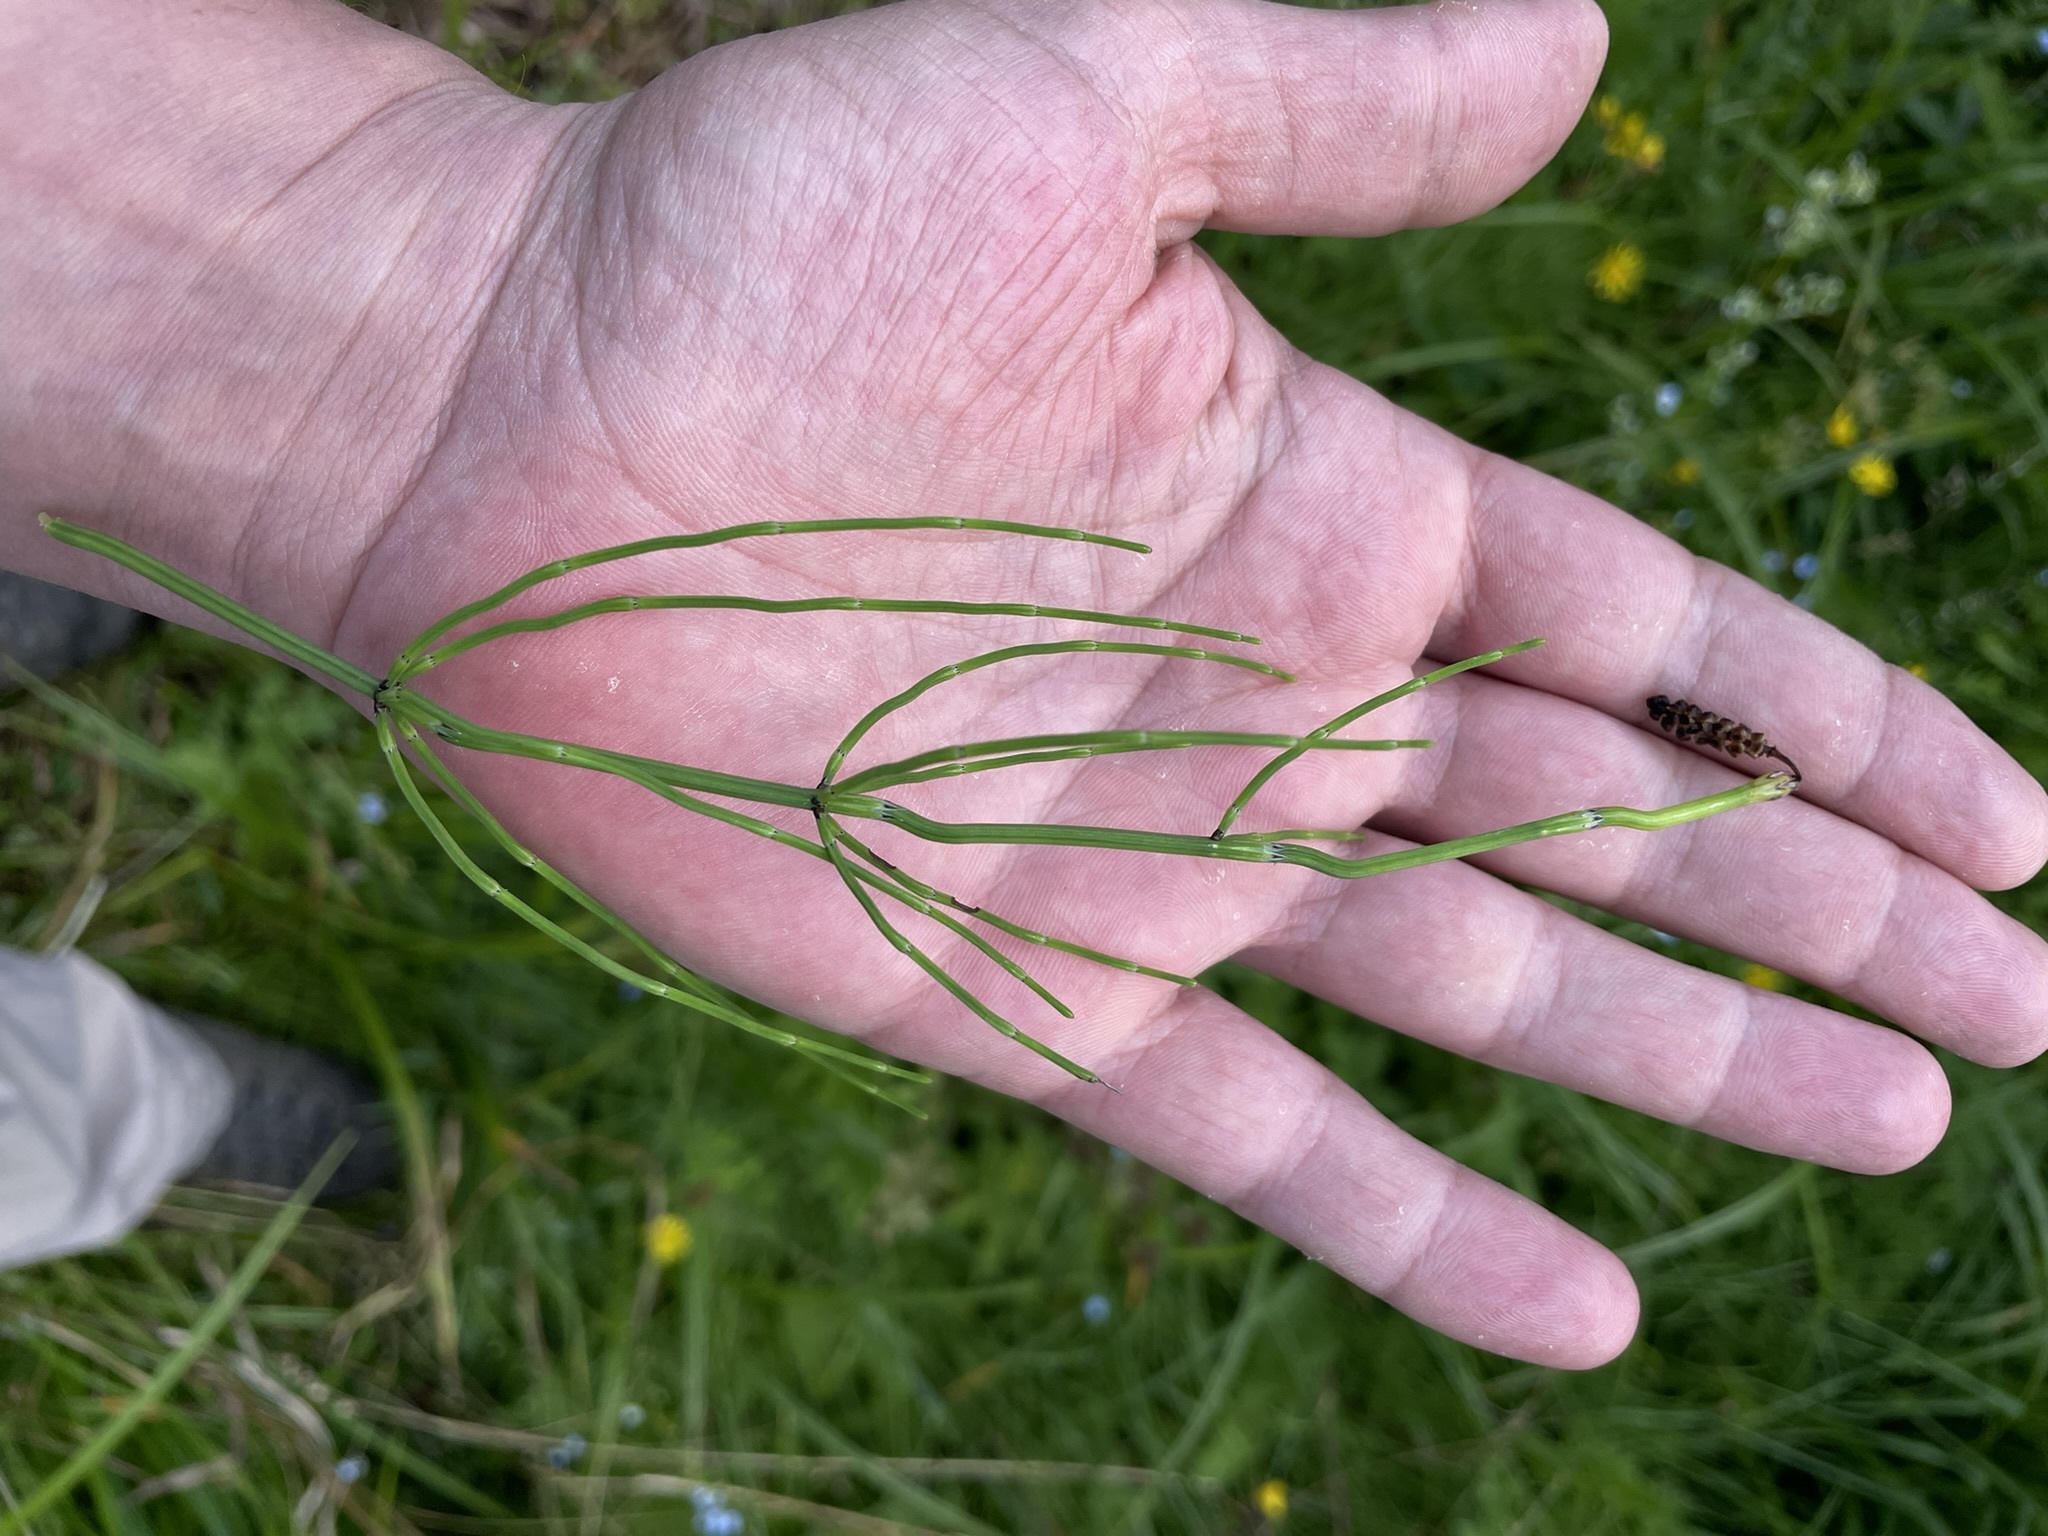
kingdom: Plantae
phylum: Tracheophyta
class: Polypodiopsida
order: Equisetales
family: Equisetaceae
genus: Equisetum
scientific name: Equisetum palustre
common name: Marsh horsetail
